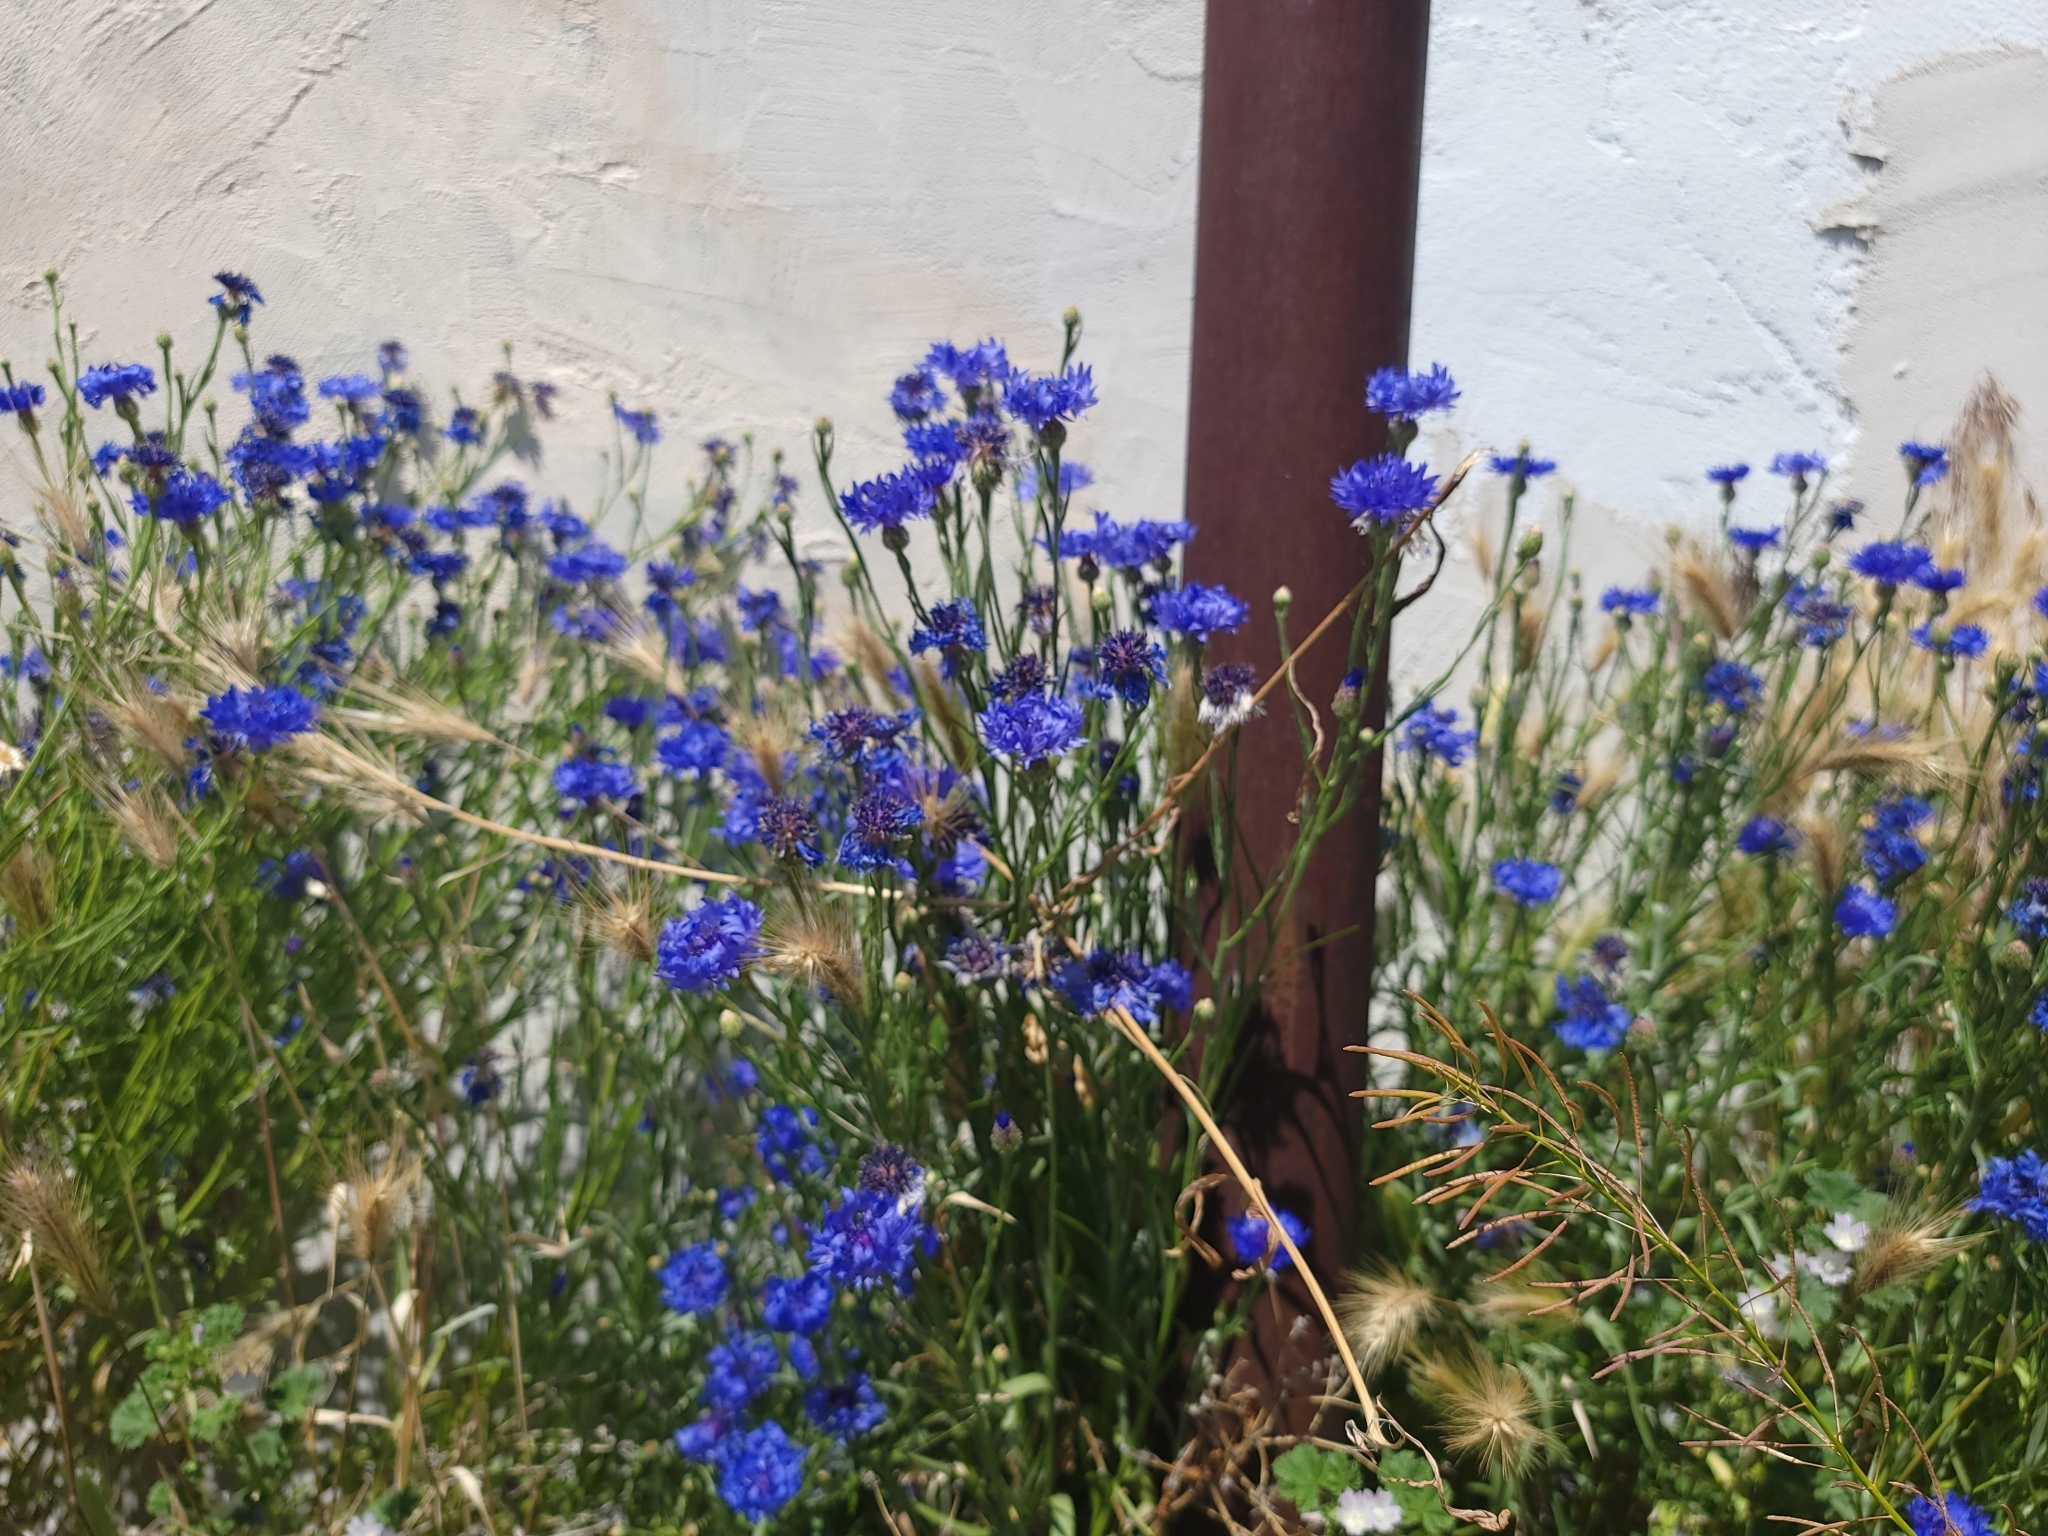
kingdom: Plantae
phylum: Tracheophyta
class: Magnoliopsida
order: Asterales
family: Asteraceae
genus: Centaurea
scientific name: Centaurea cyanus
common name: Cornflower
